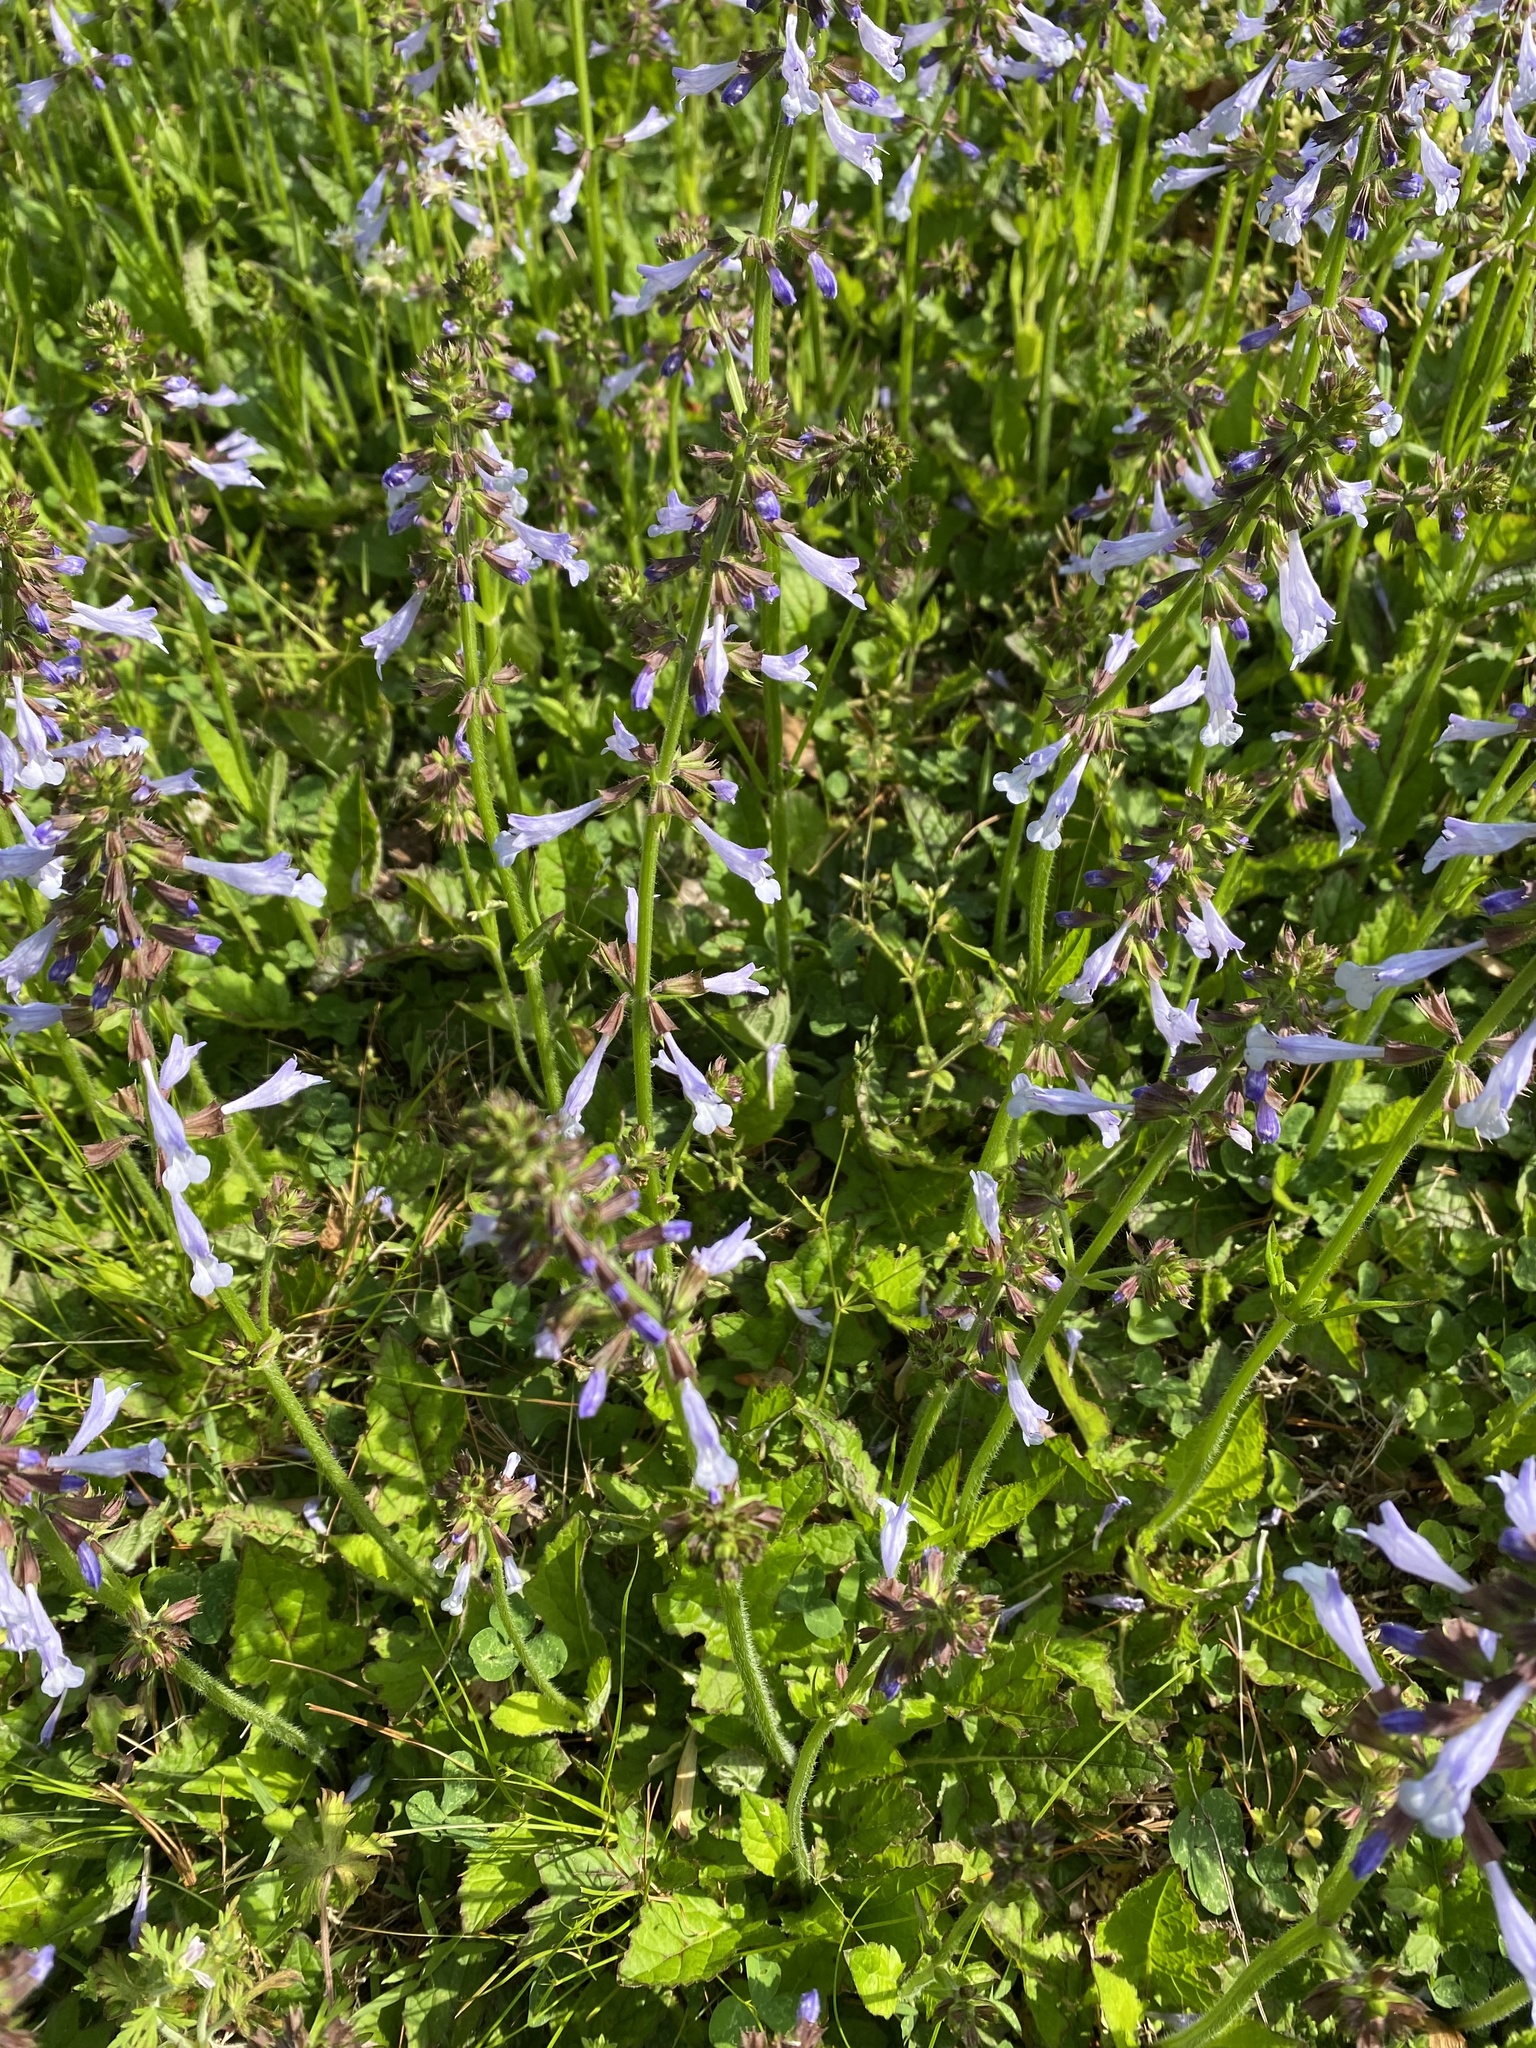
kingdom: Plantae
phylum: Tracheophyta
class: Magnoliopsida
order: Lamiales
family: Lamiaceae
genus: Salvia
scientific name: Salvia lyrata
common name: Cancerweed
